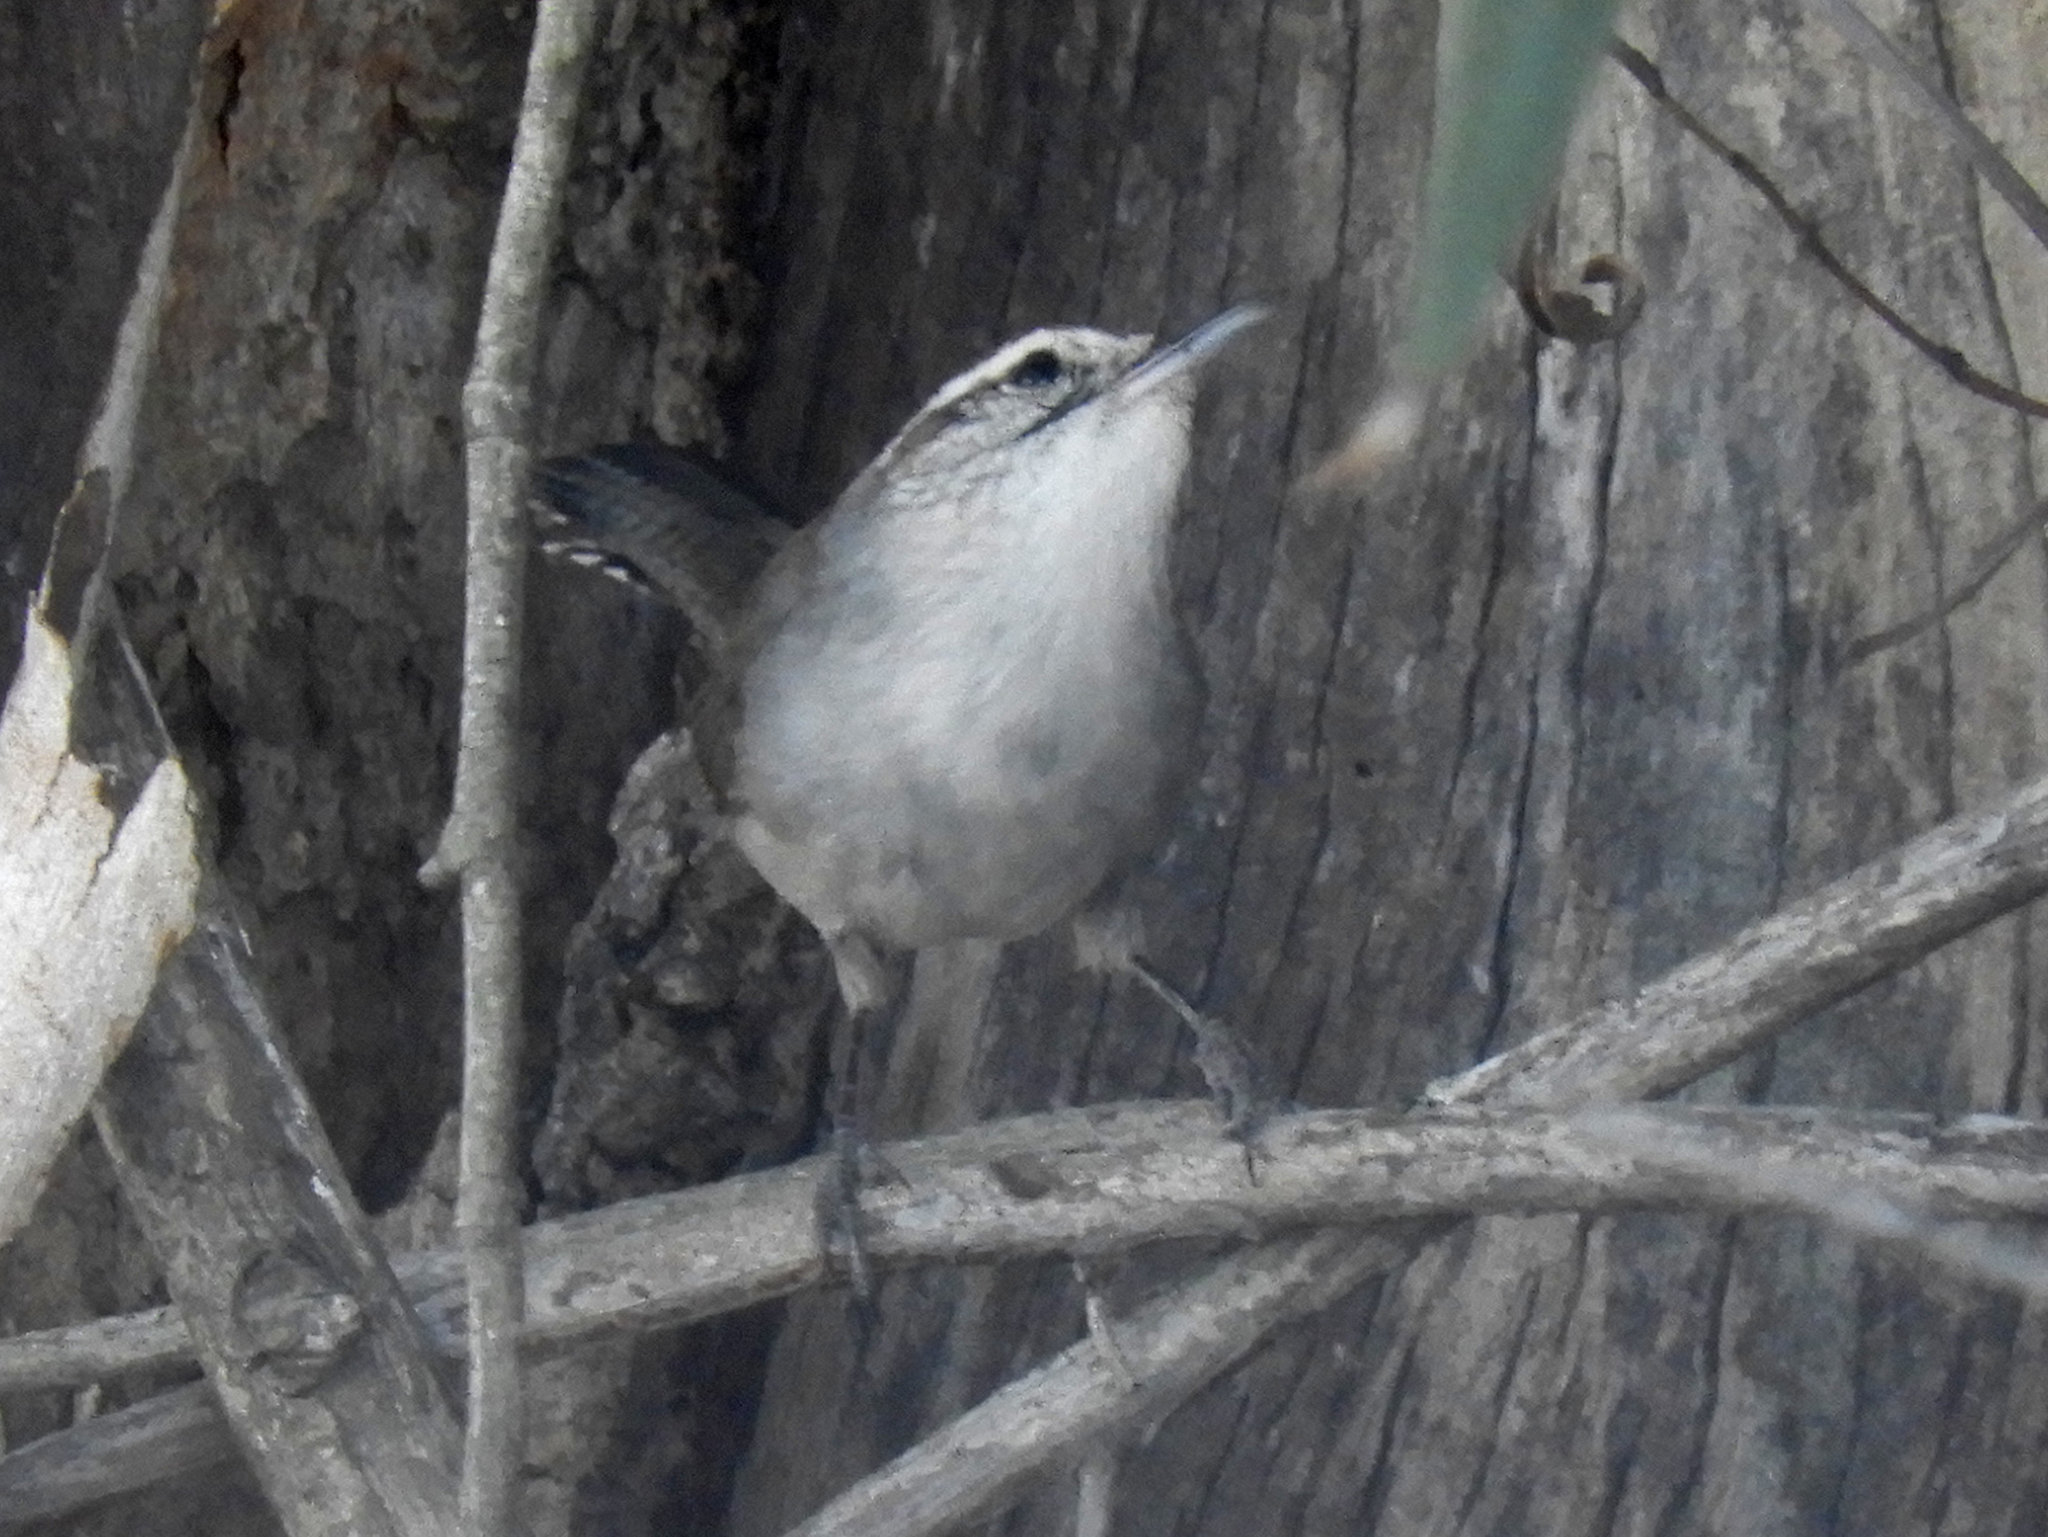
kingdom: Animalia
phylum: Chordata
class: Aves
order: Passeriformes
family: Troglodytidae
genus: Thryomanes
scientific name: Thryomanes bewickii
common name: Bewick's wren
